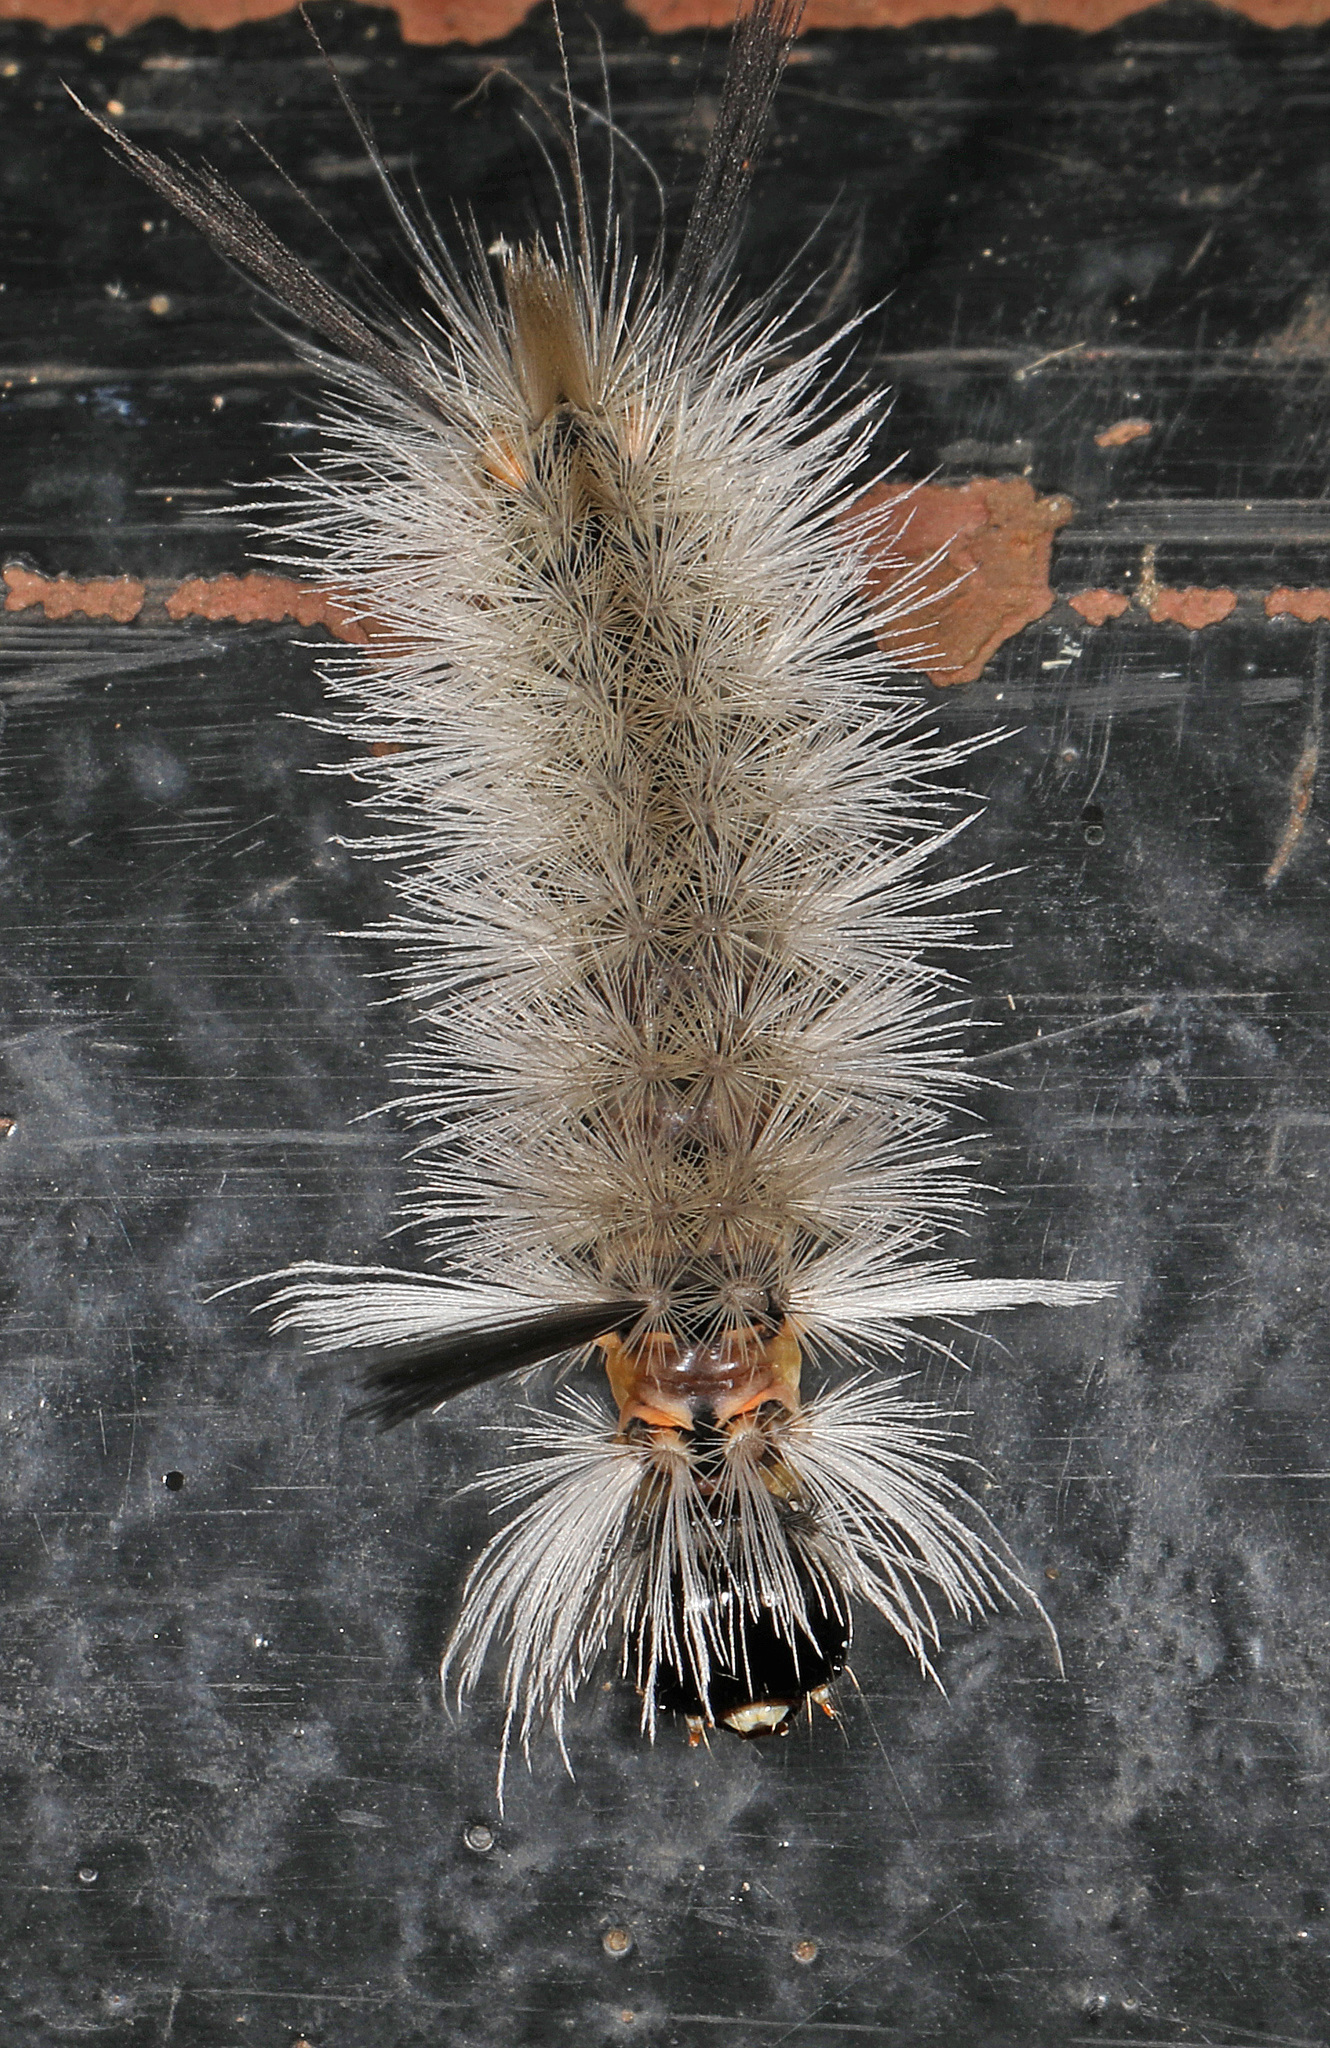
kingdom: Animalia
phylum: Arthropoda
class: Insecta
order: Lepidoptera
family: Erebidae
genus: Halysidota
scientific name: Halysidota tessellaris
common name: Banded tussock moth
